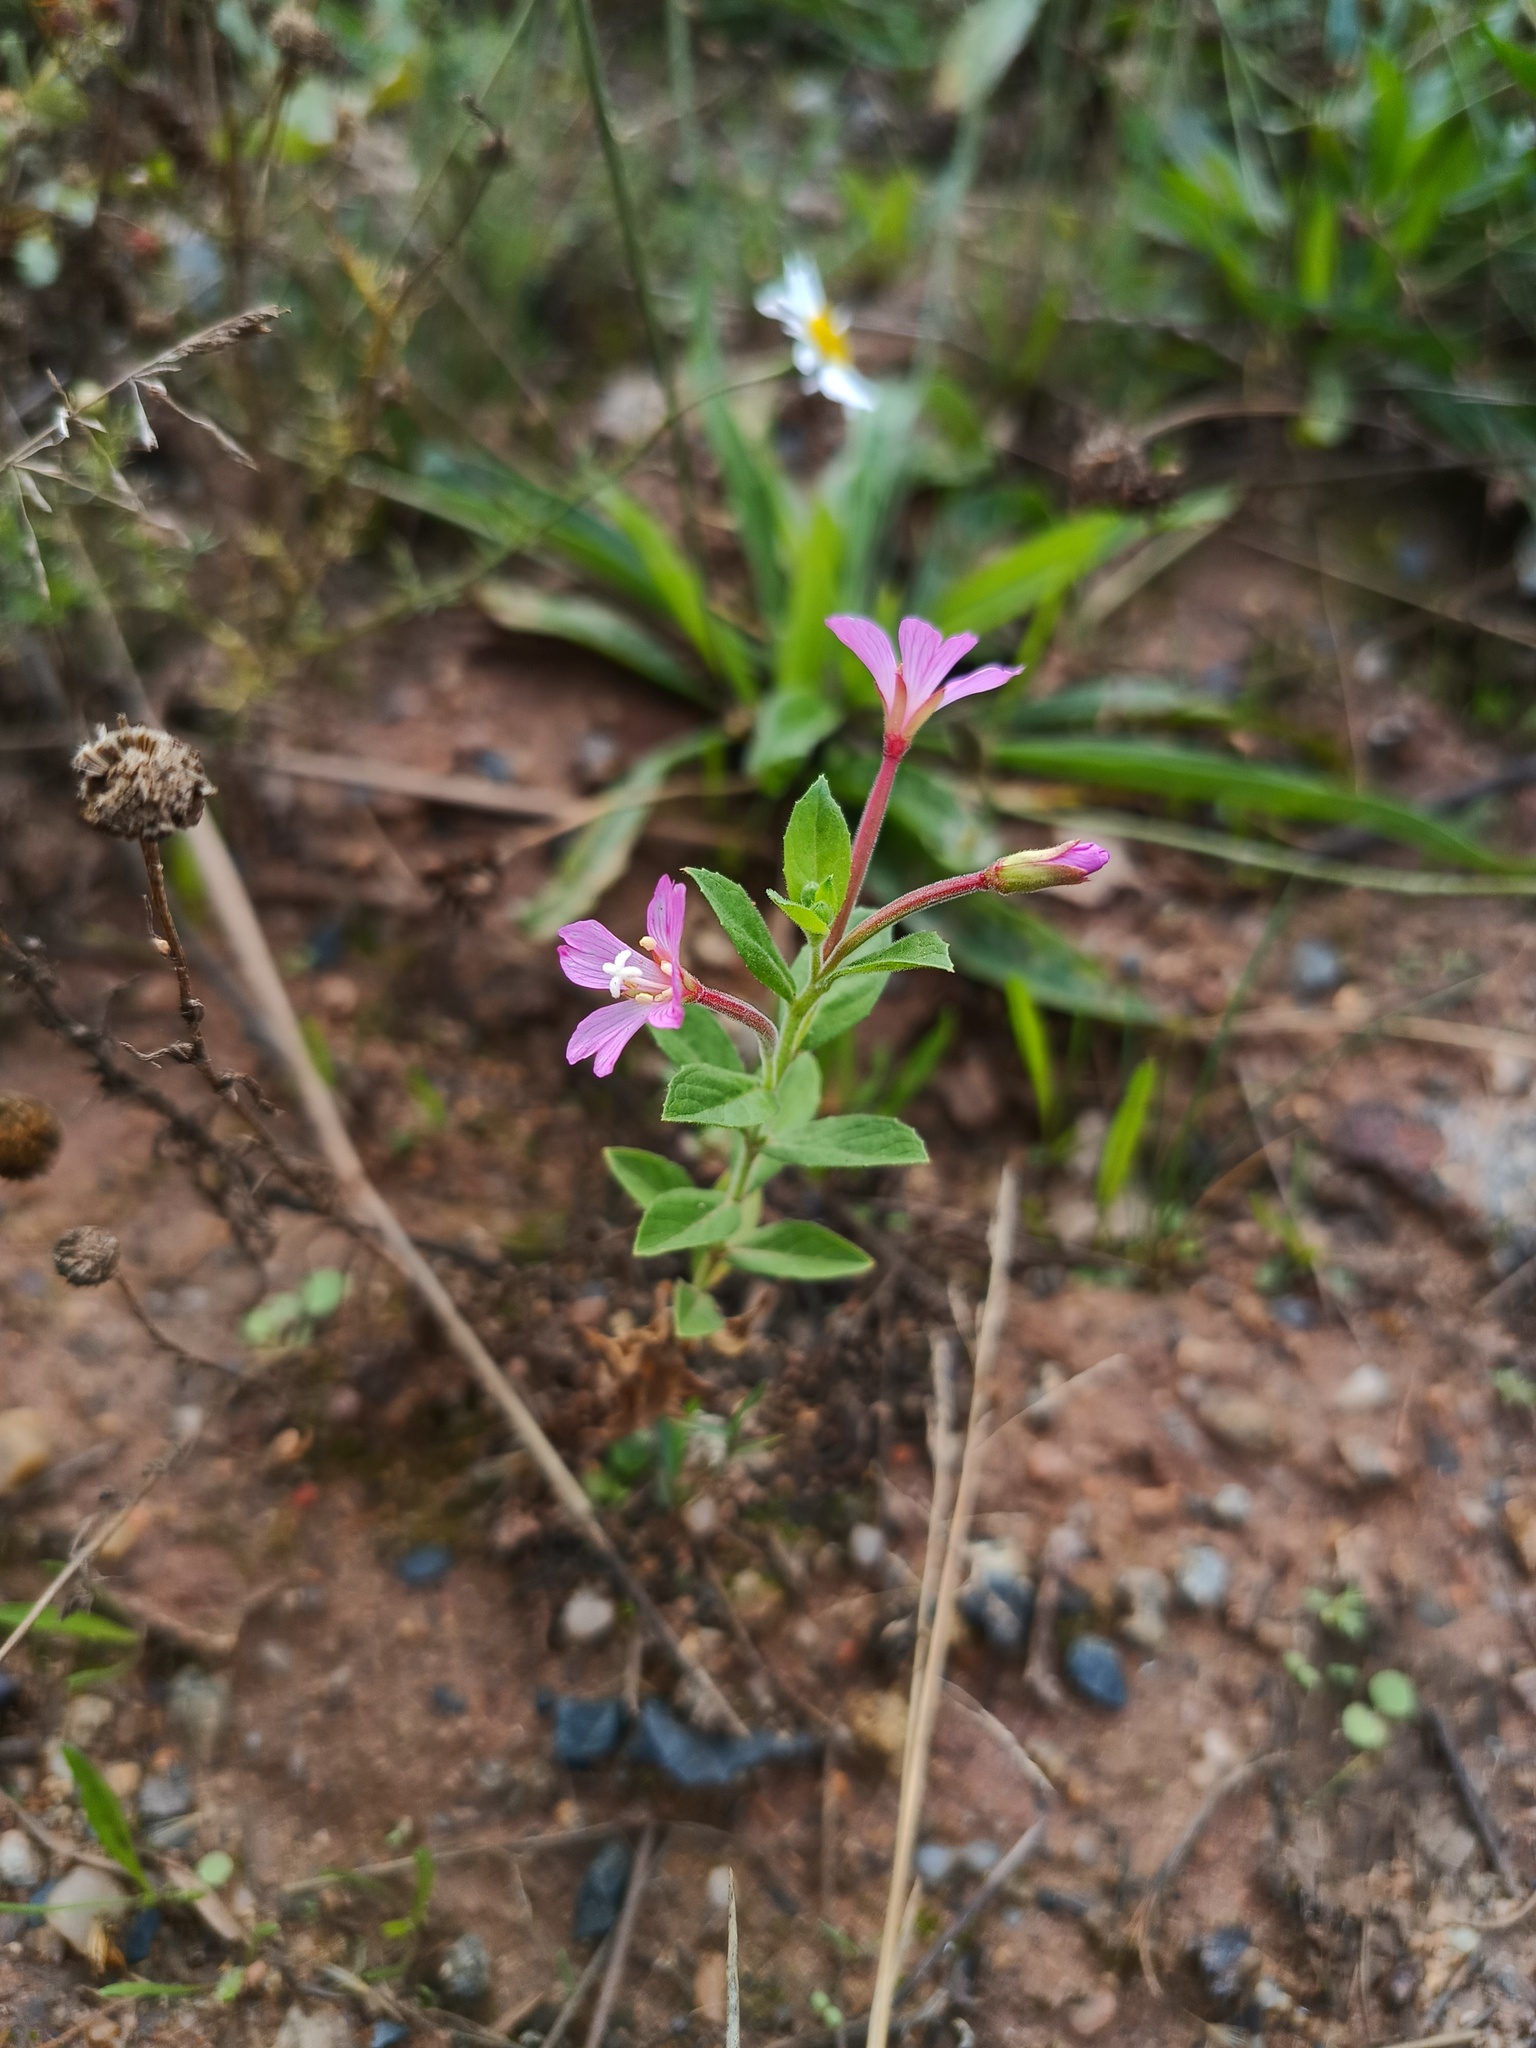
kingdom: Plantae
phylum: Tracheophyta
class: Magnoliopsida
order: Myrtales
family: Onagraceae
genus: Epilobium
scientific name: Epilobium hirsutum
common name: Great willowherb
